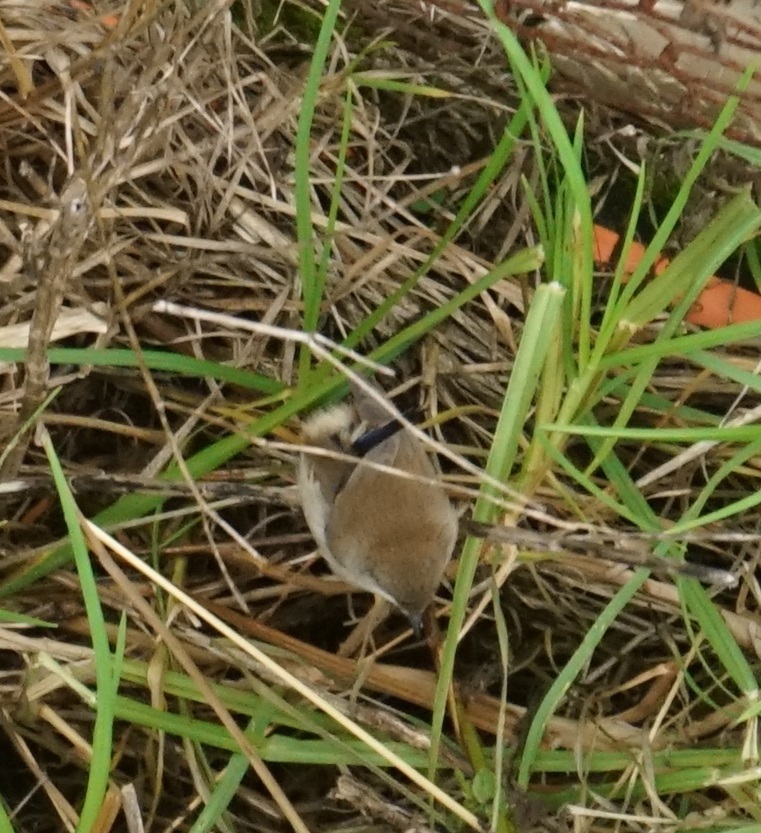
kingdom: Animalia
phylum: Chordata
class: Aves
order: Passeriformes
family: Maluridae
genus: Malurus
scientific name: Malurus cyaneus
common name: Superb fairywren
